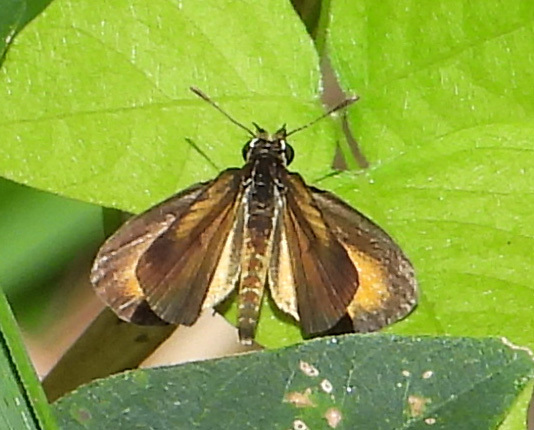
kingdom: Animalia
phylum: Arthropoda
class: Insecta
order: Lepidoptera
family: Hesperiidae
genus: Ancyloxypha
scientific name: Ancyloxypha numitor
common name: Least skipper
